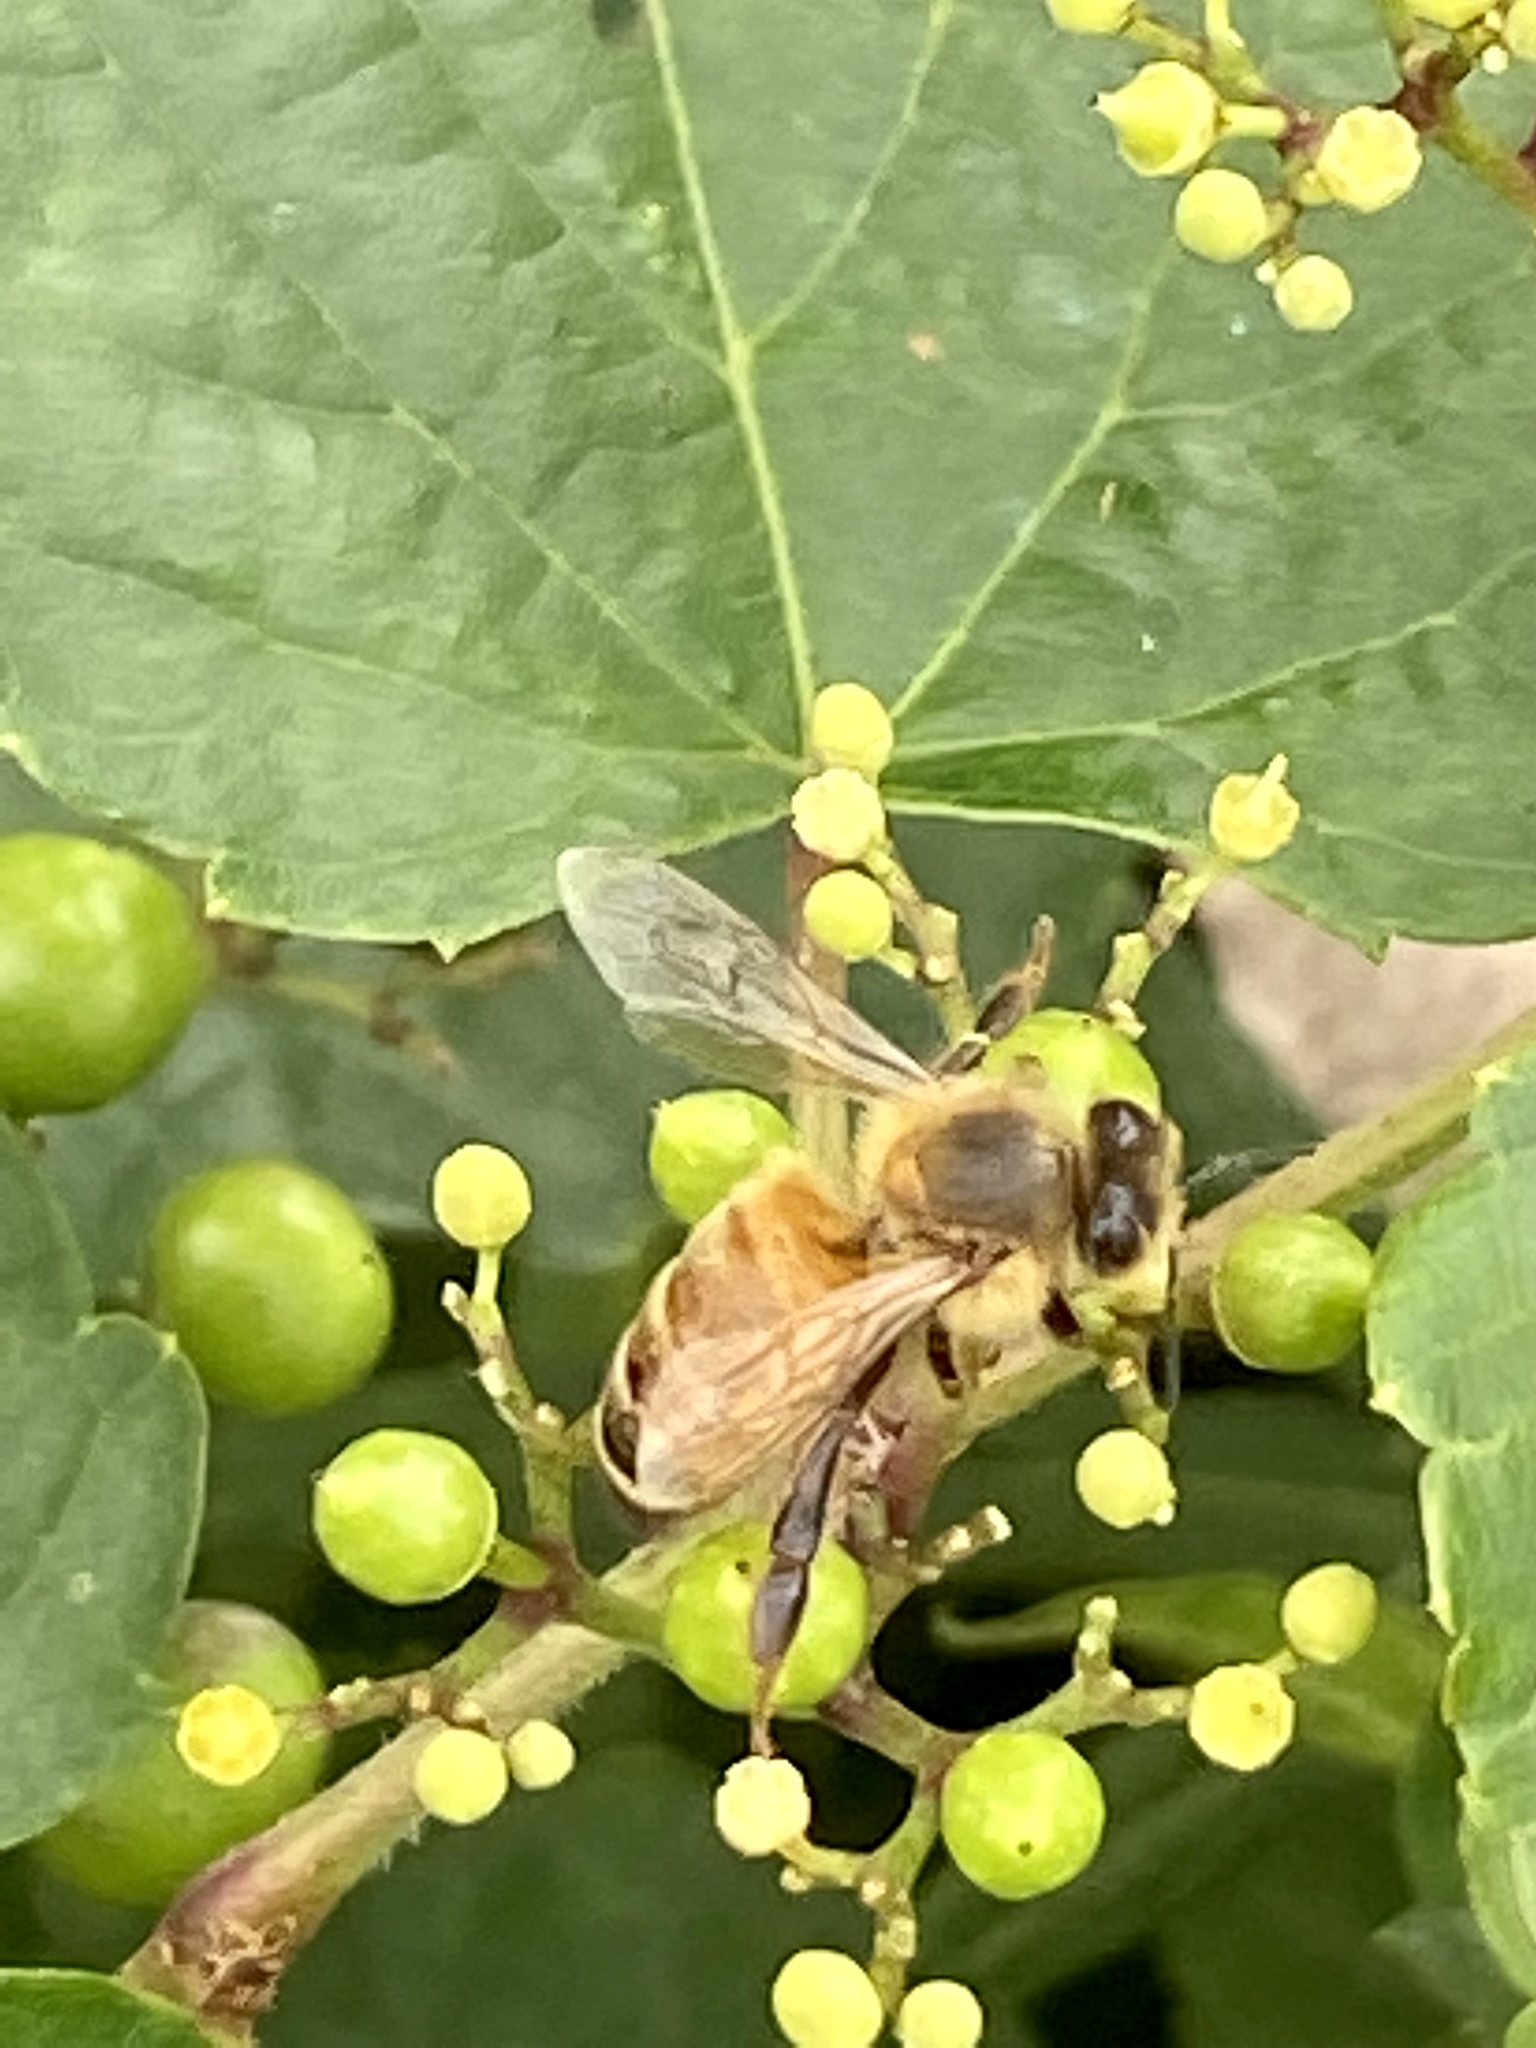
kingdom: Animalia
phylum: Arthropoda
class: Insecta
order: Hymenoptera
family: Apidae
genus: Apis
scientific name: Apis mellifera
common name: Honey bee
